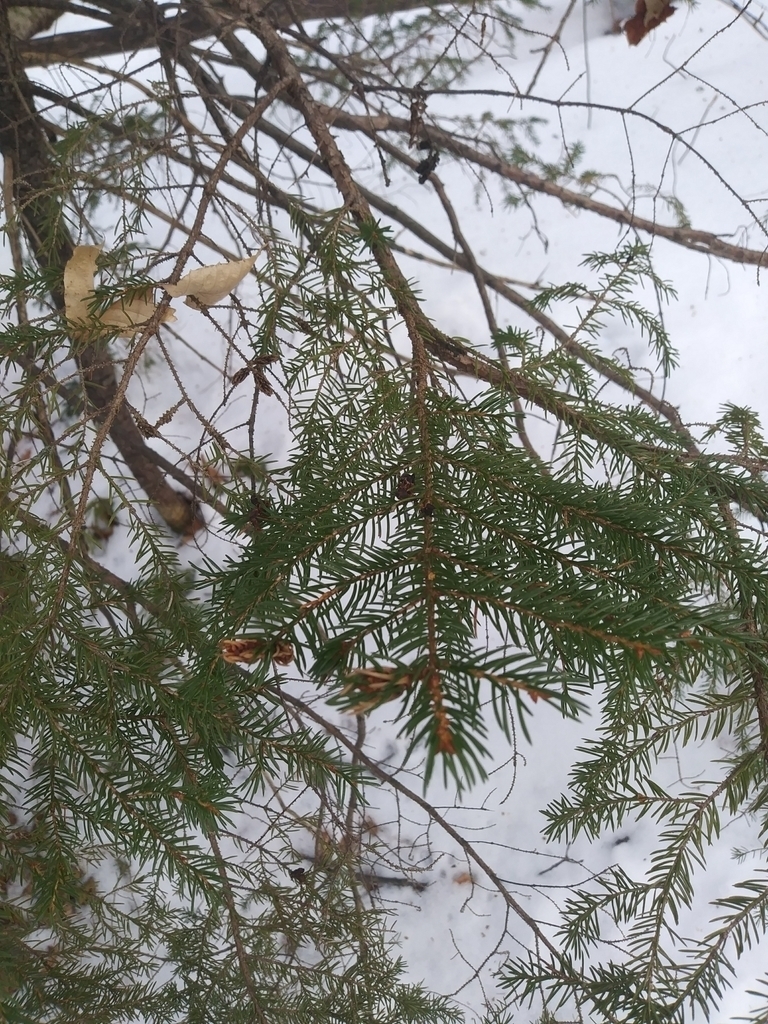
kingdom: Animalia
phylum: Arthropoda
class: Insecta
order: Hemiptera
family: Adelgidae
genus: Adelges
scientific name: Adelges abietis
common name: Eastern spruce gall adelgid
